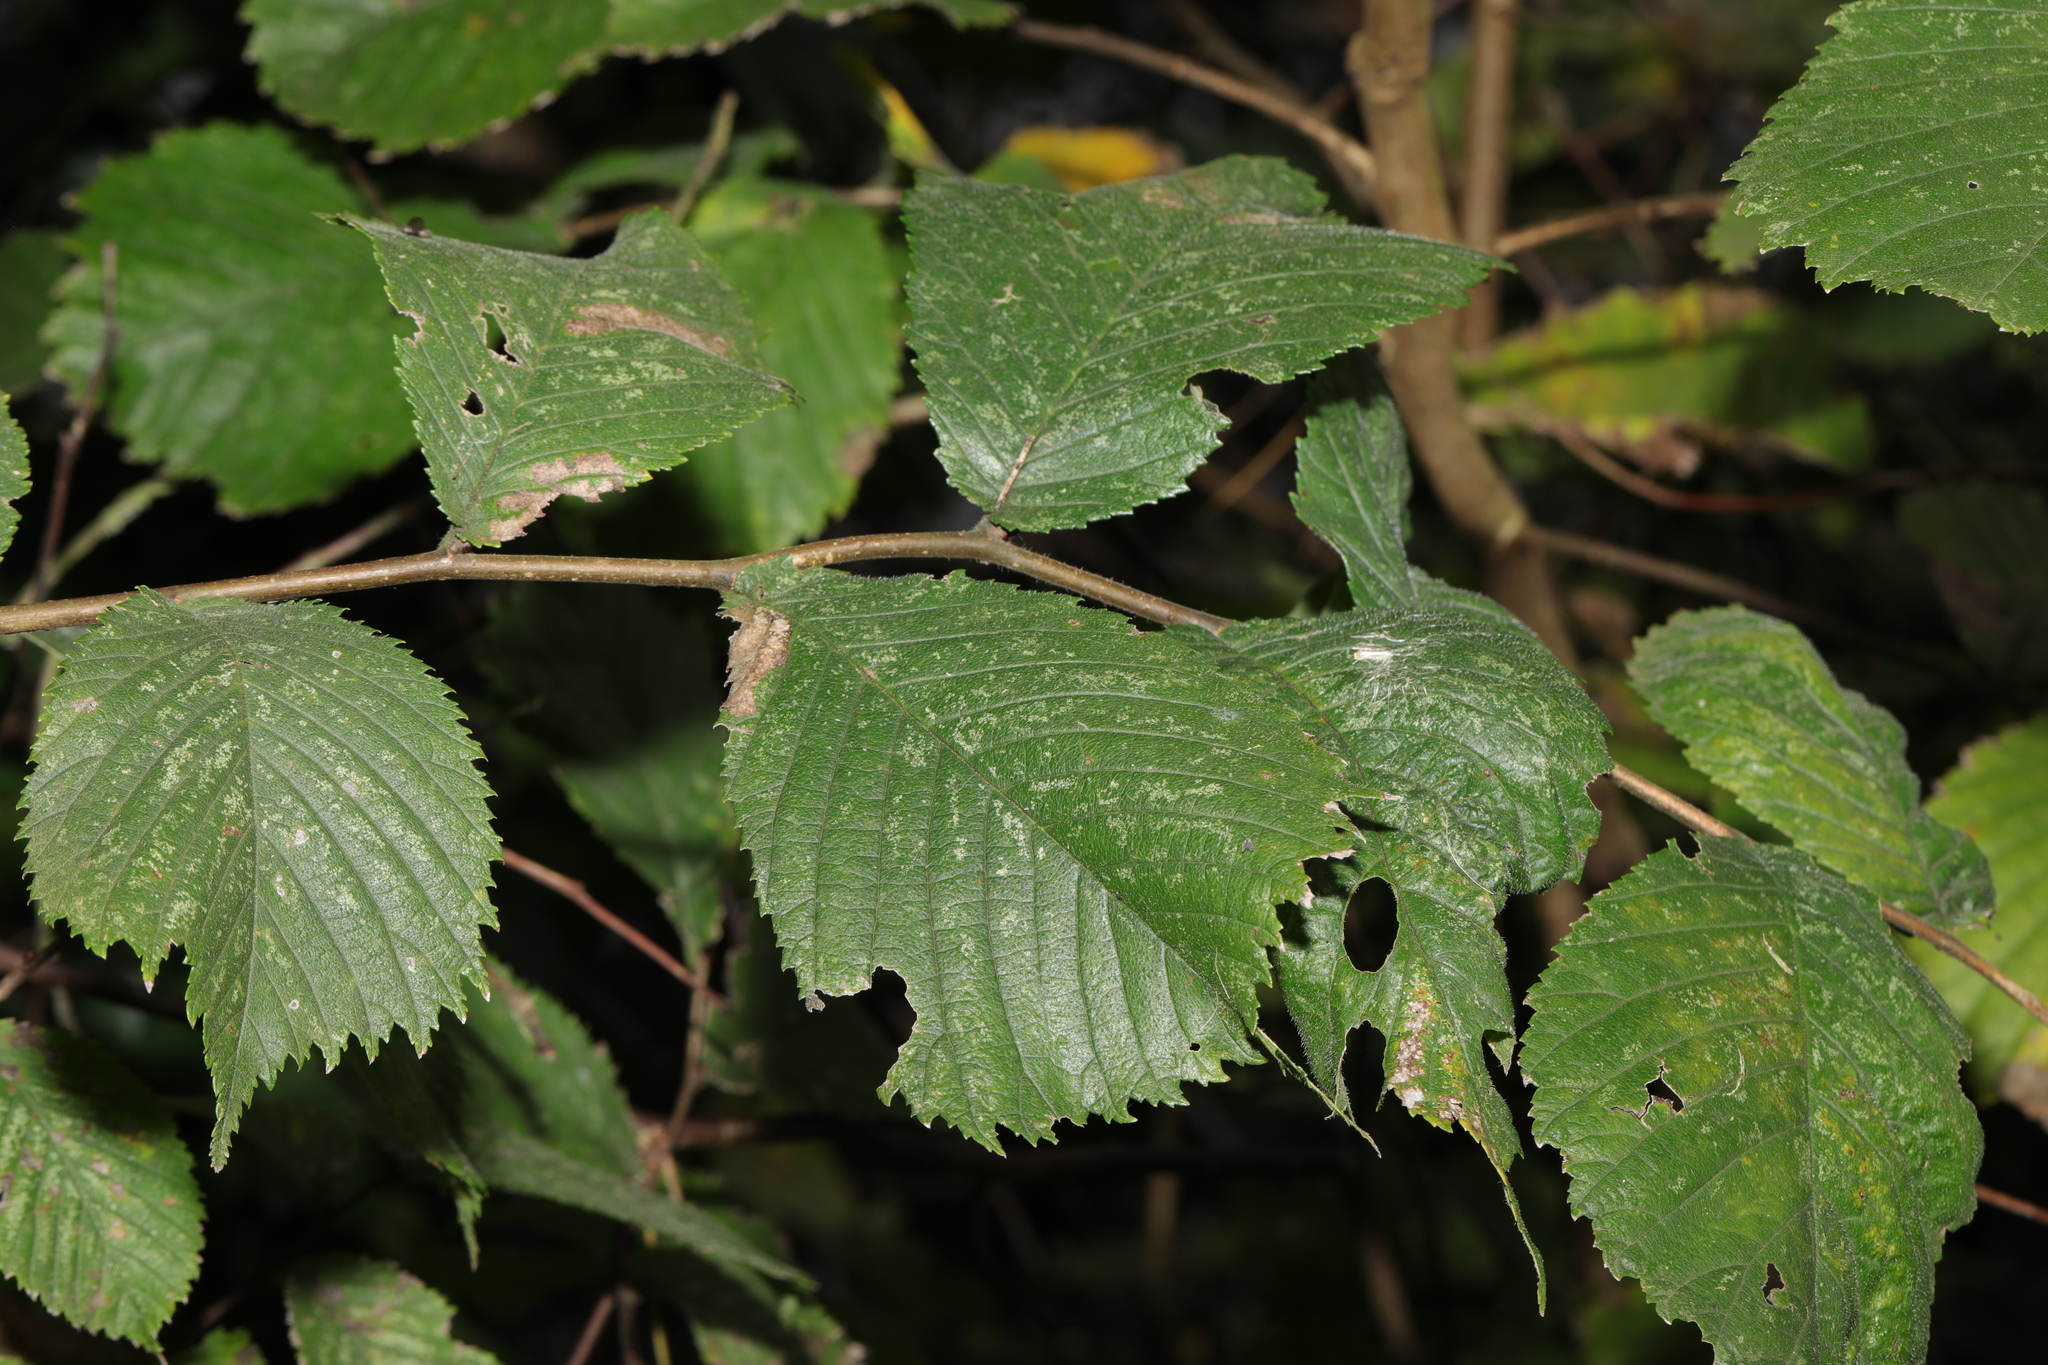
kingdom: Plantae
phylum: Tracheophyta
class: Magnoliopsida
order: Rosales
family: Ulmaceae
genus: Ulmus
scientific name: Ulmus glabra
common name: Wych elm
